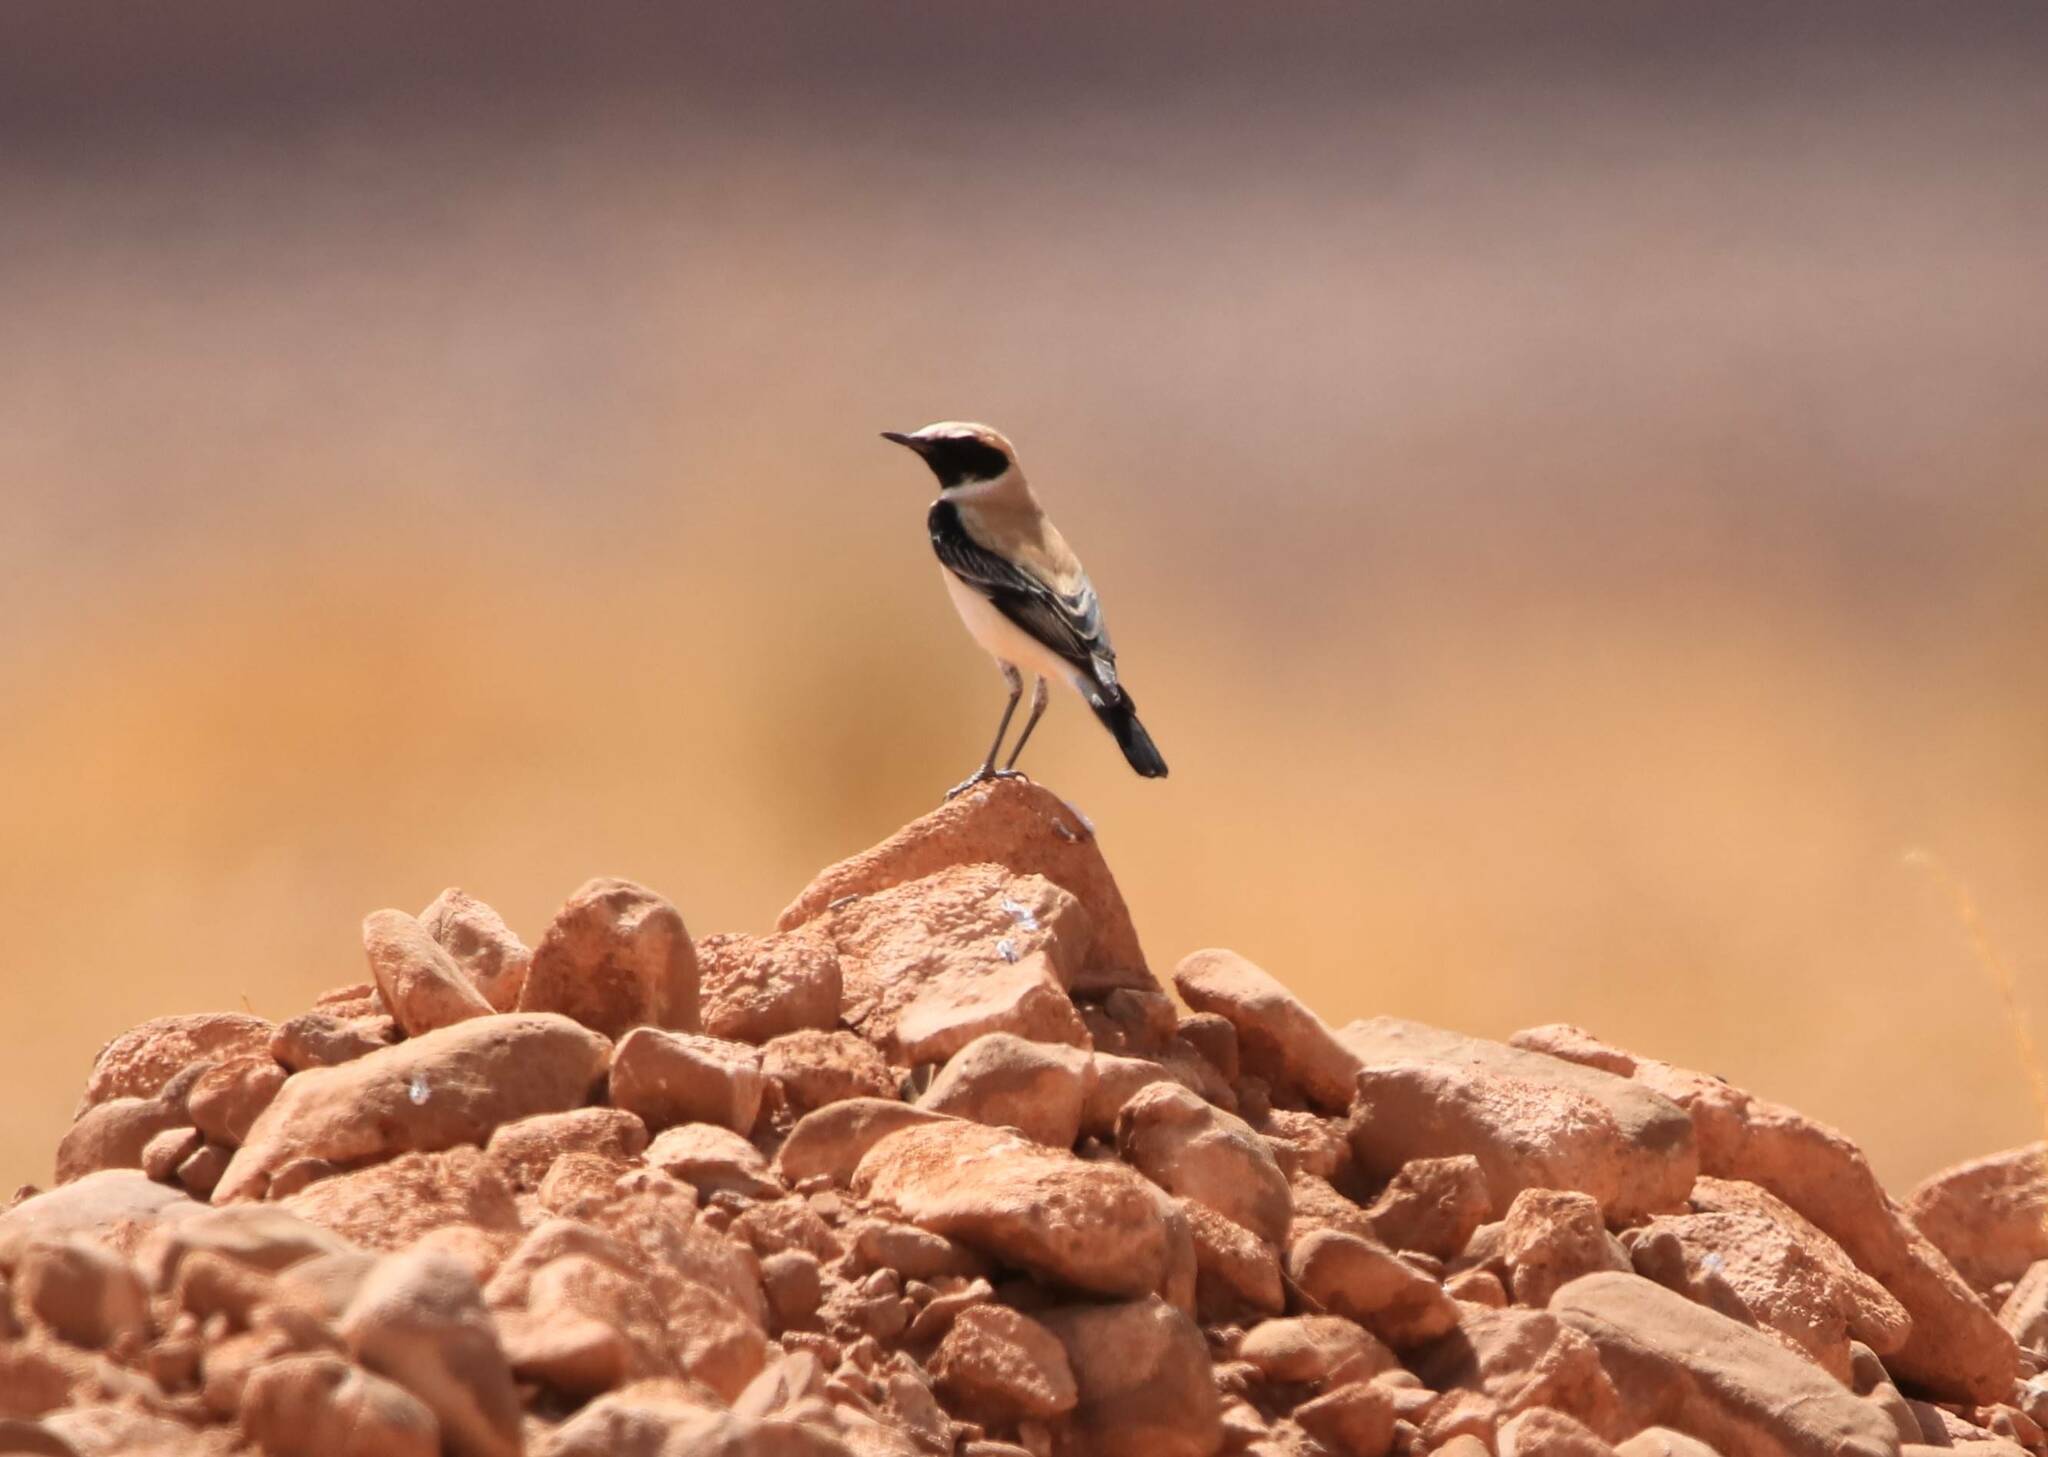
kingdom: Animalia
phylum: Chordata
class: Aves
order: Passeriformes
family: Muscicapidae
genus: Oenanthe
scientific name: Oenanthe deserti
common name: Desert wheatear
